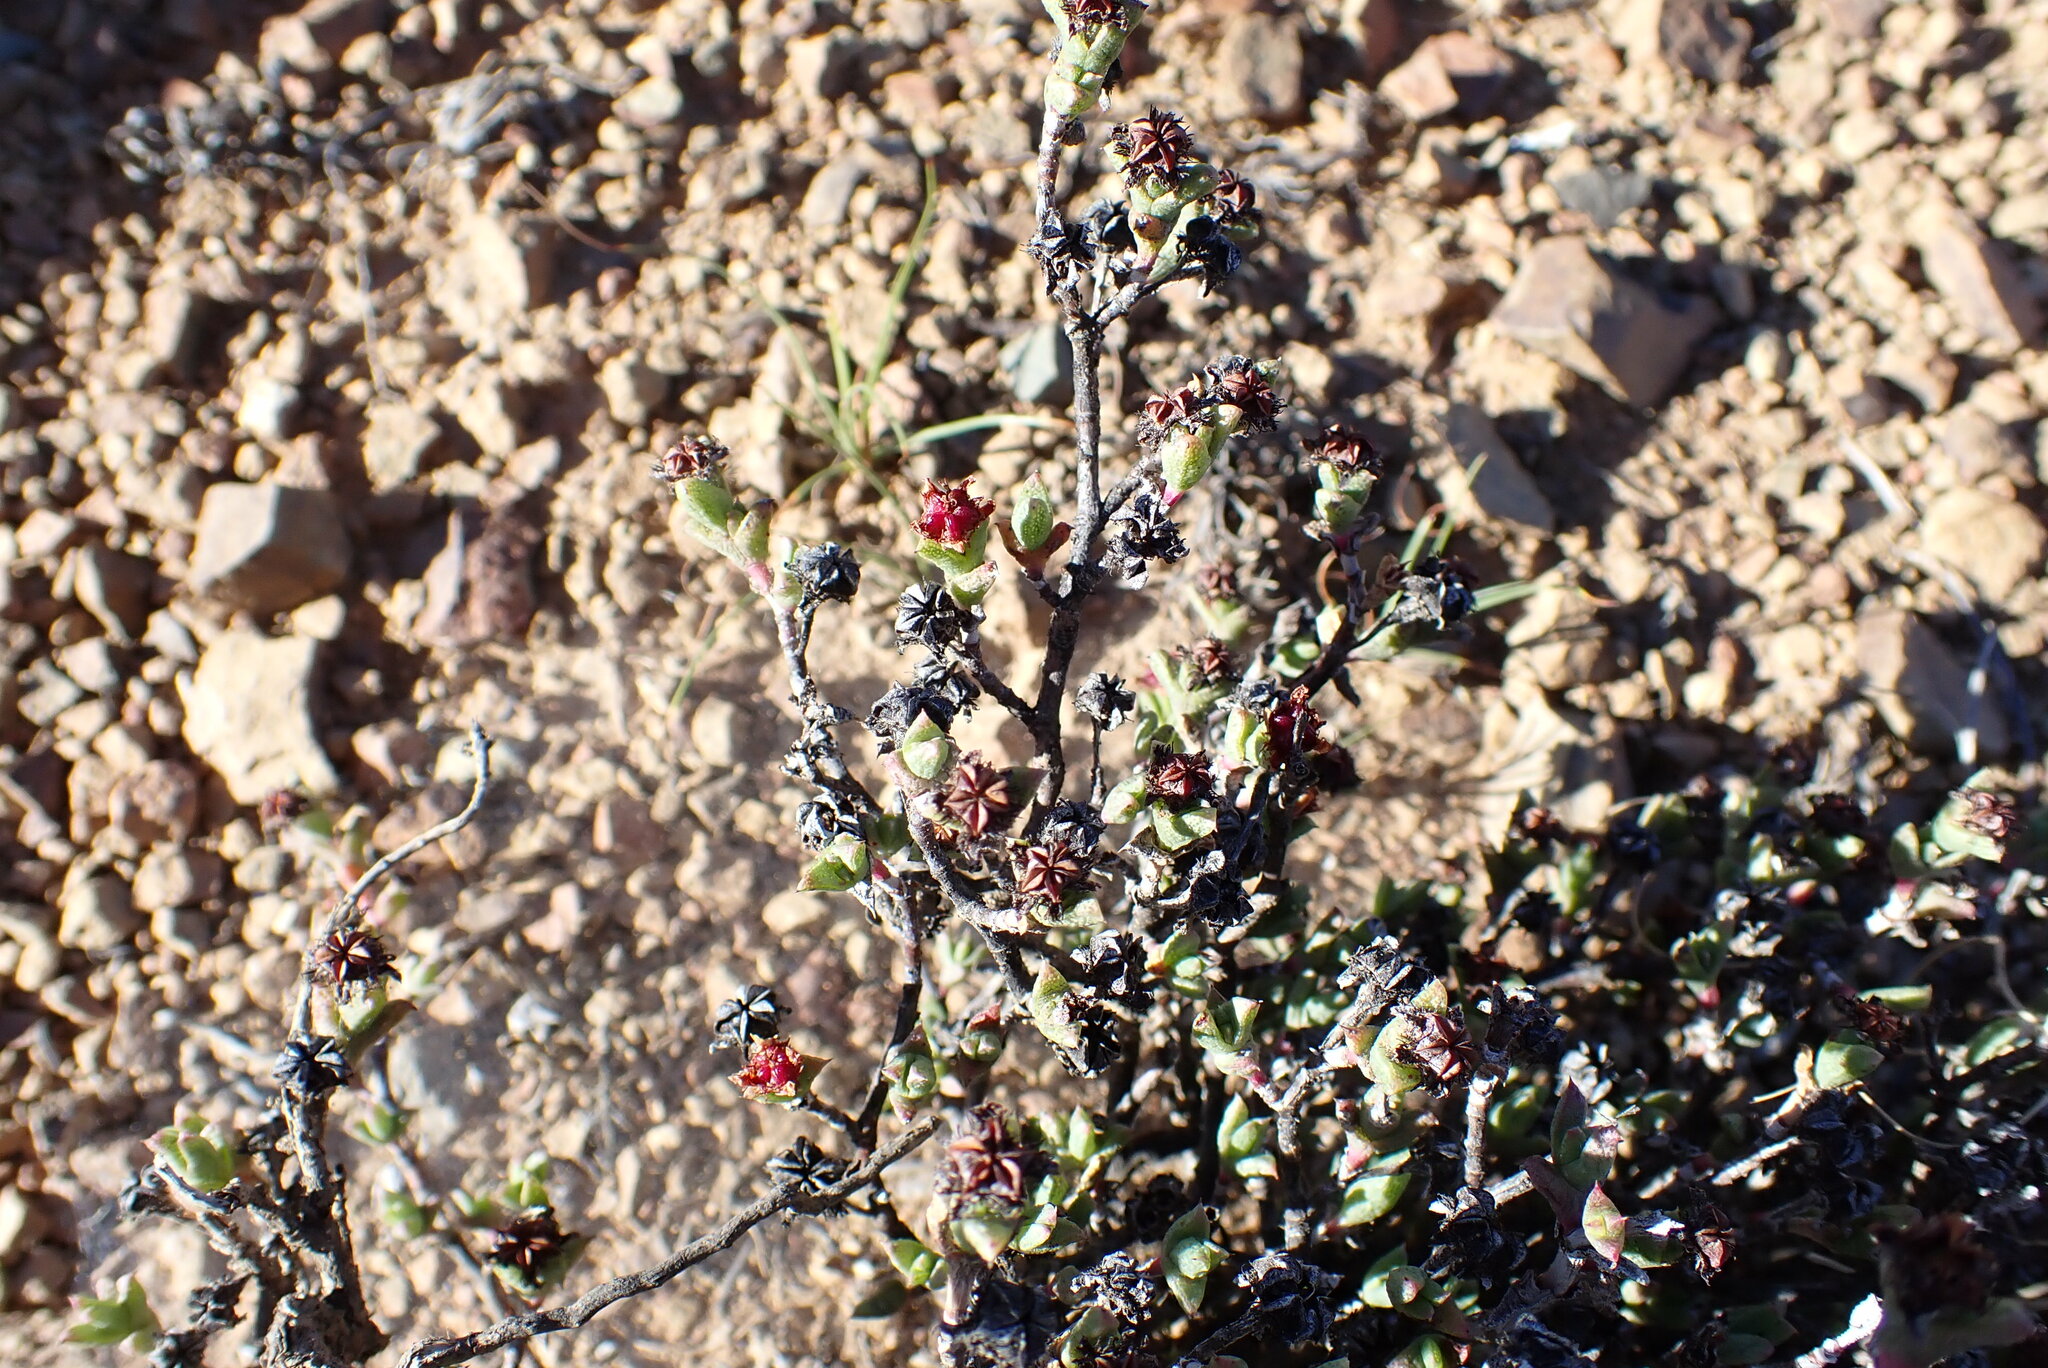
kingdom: Plantae
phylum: Tracheophyta
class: Magnoliopsida
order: Caryophyllales
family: Aizoaceae
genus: Ruschia
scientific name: Ruschia hamata
